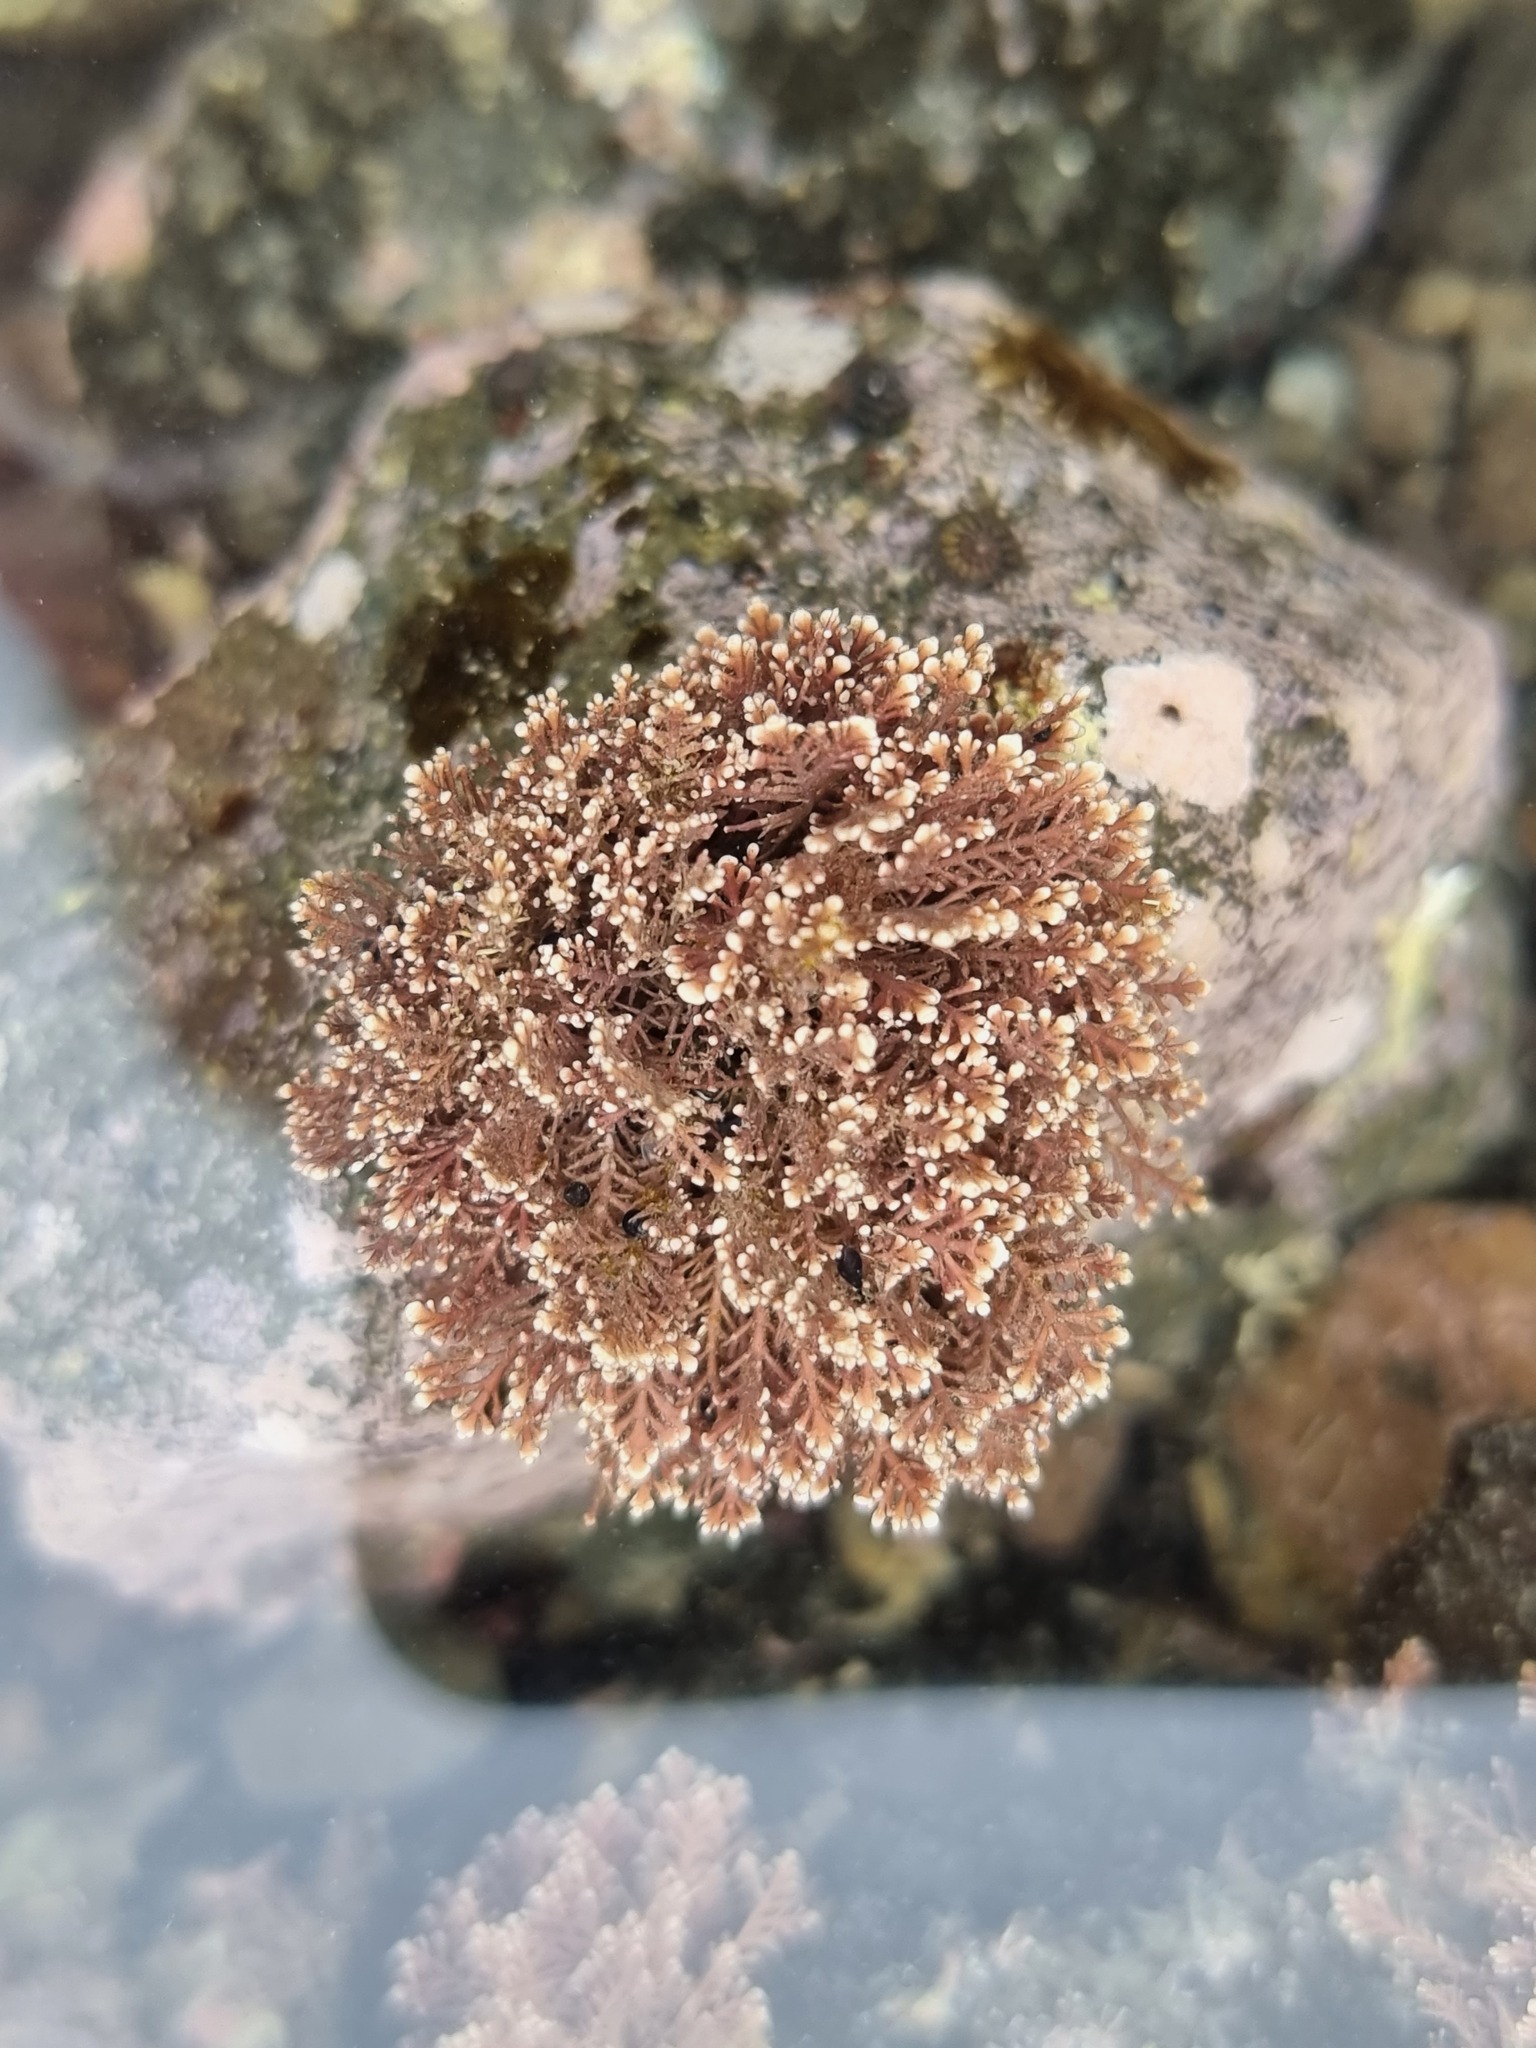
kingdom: Plantae
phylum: Rhodophyta
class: Florideophyceae
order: Corallinales
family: Corallinaceae
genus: Corallina
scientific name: Corallina officinalis
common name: Coral weed
